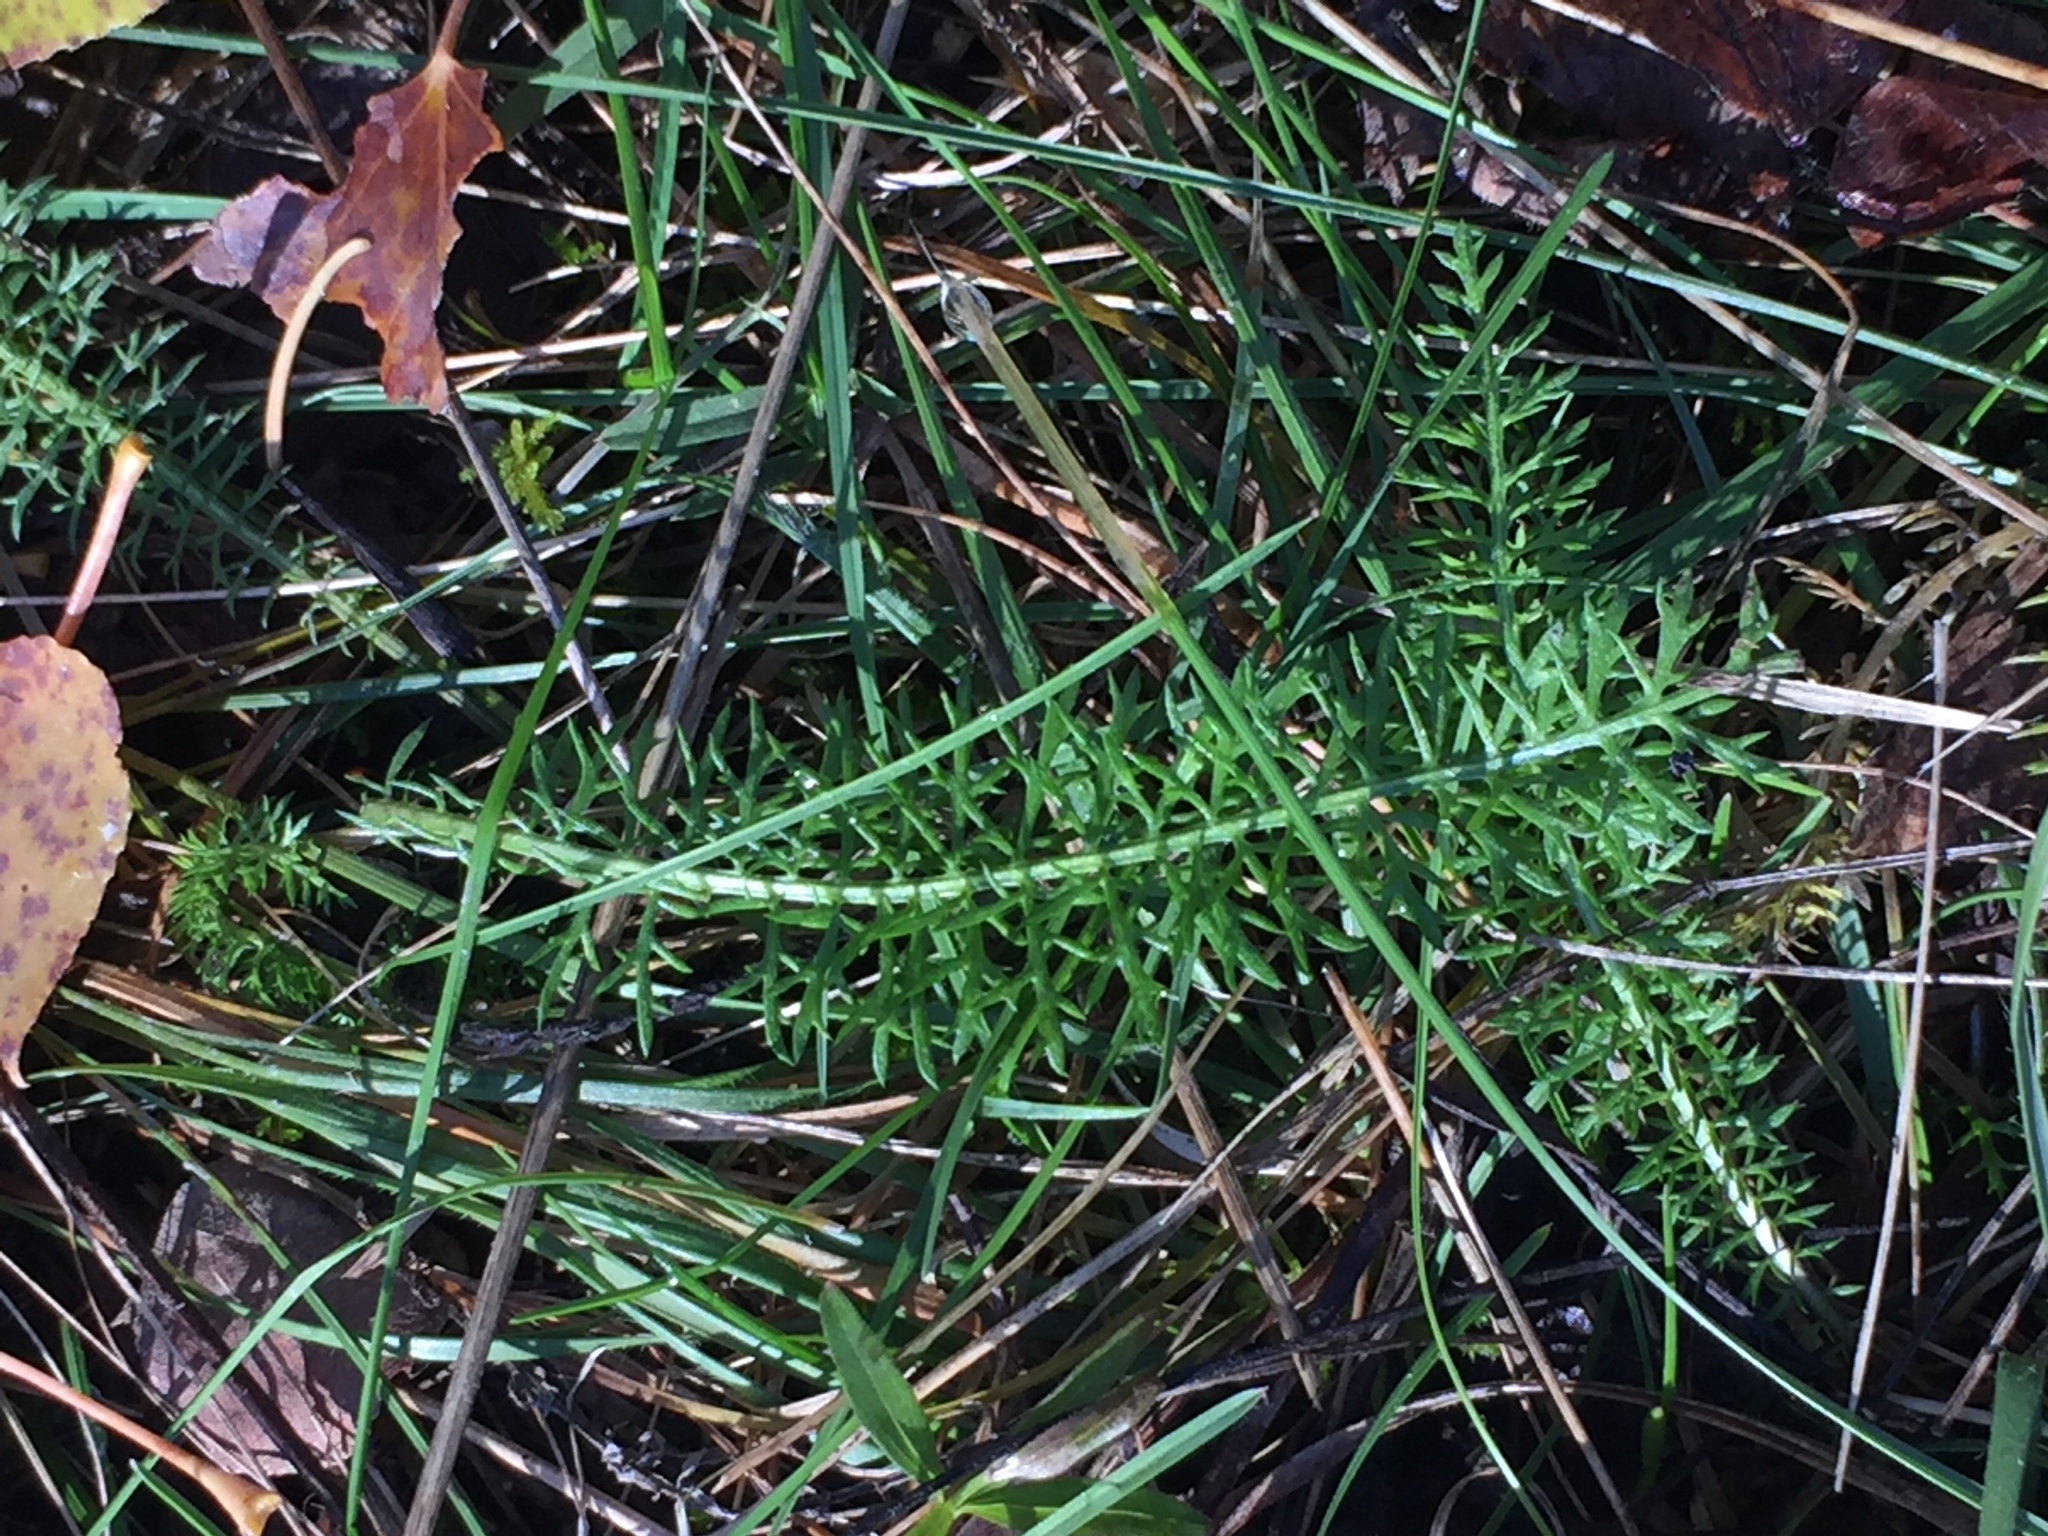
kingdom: Plantae
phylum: Tracheophyta
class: Magnoliopsida
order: Asterales
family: Asteraceae
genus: Achillea
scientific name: Achillea millefolium
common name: Yarrow
